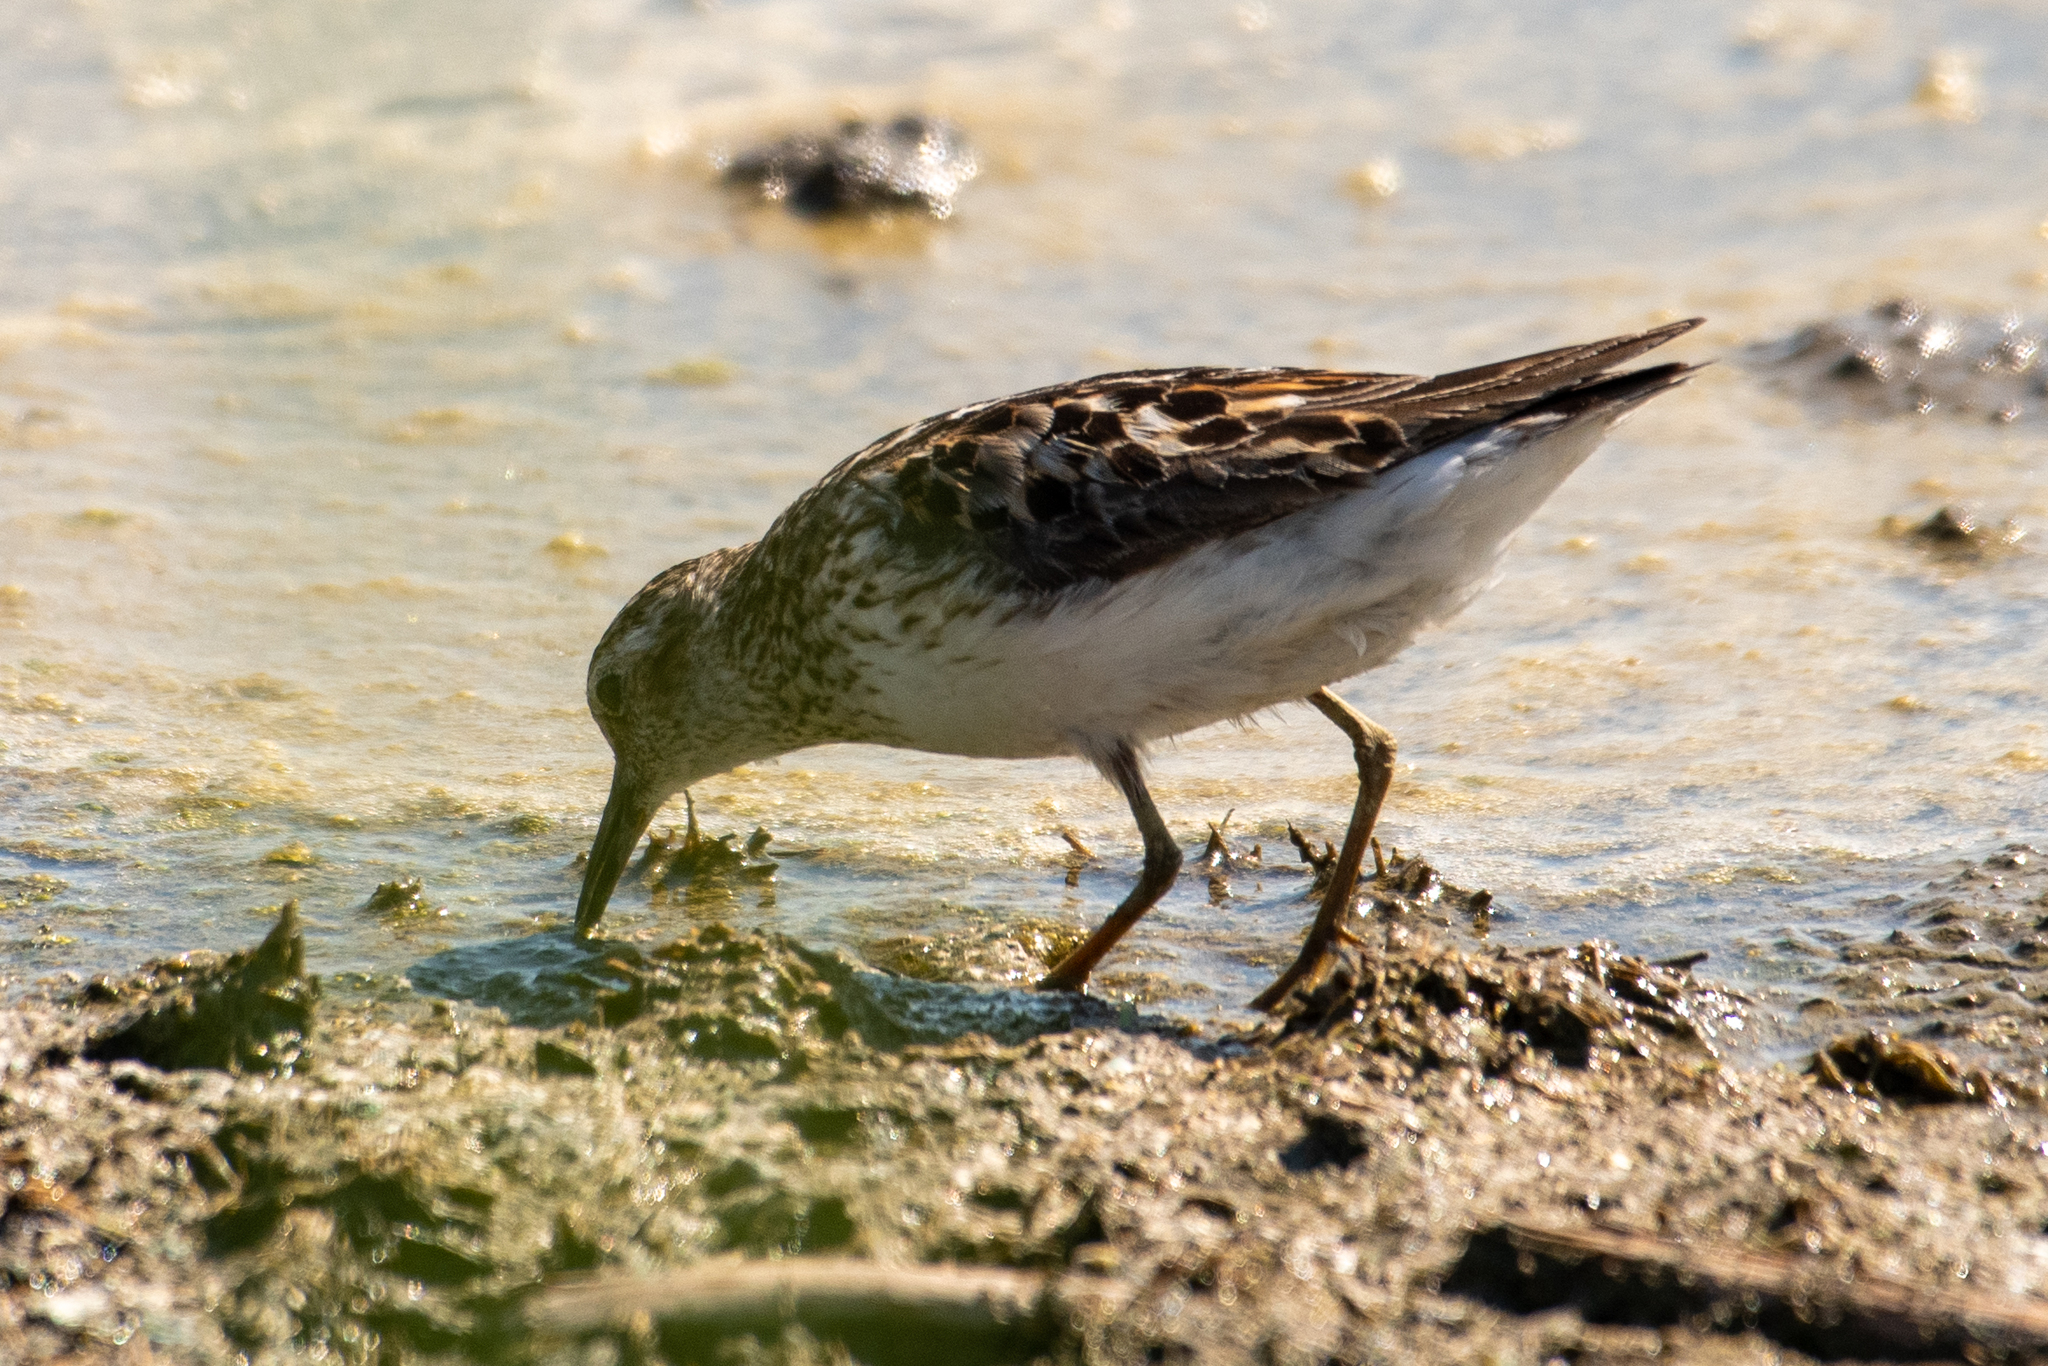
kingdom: Animalia
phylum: Chordata
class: Aves
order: Charadriiformes
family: Scolopacidae
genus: Calidris
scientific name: Calidris minutilla
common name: Least sandpiper
